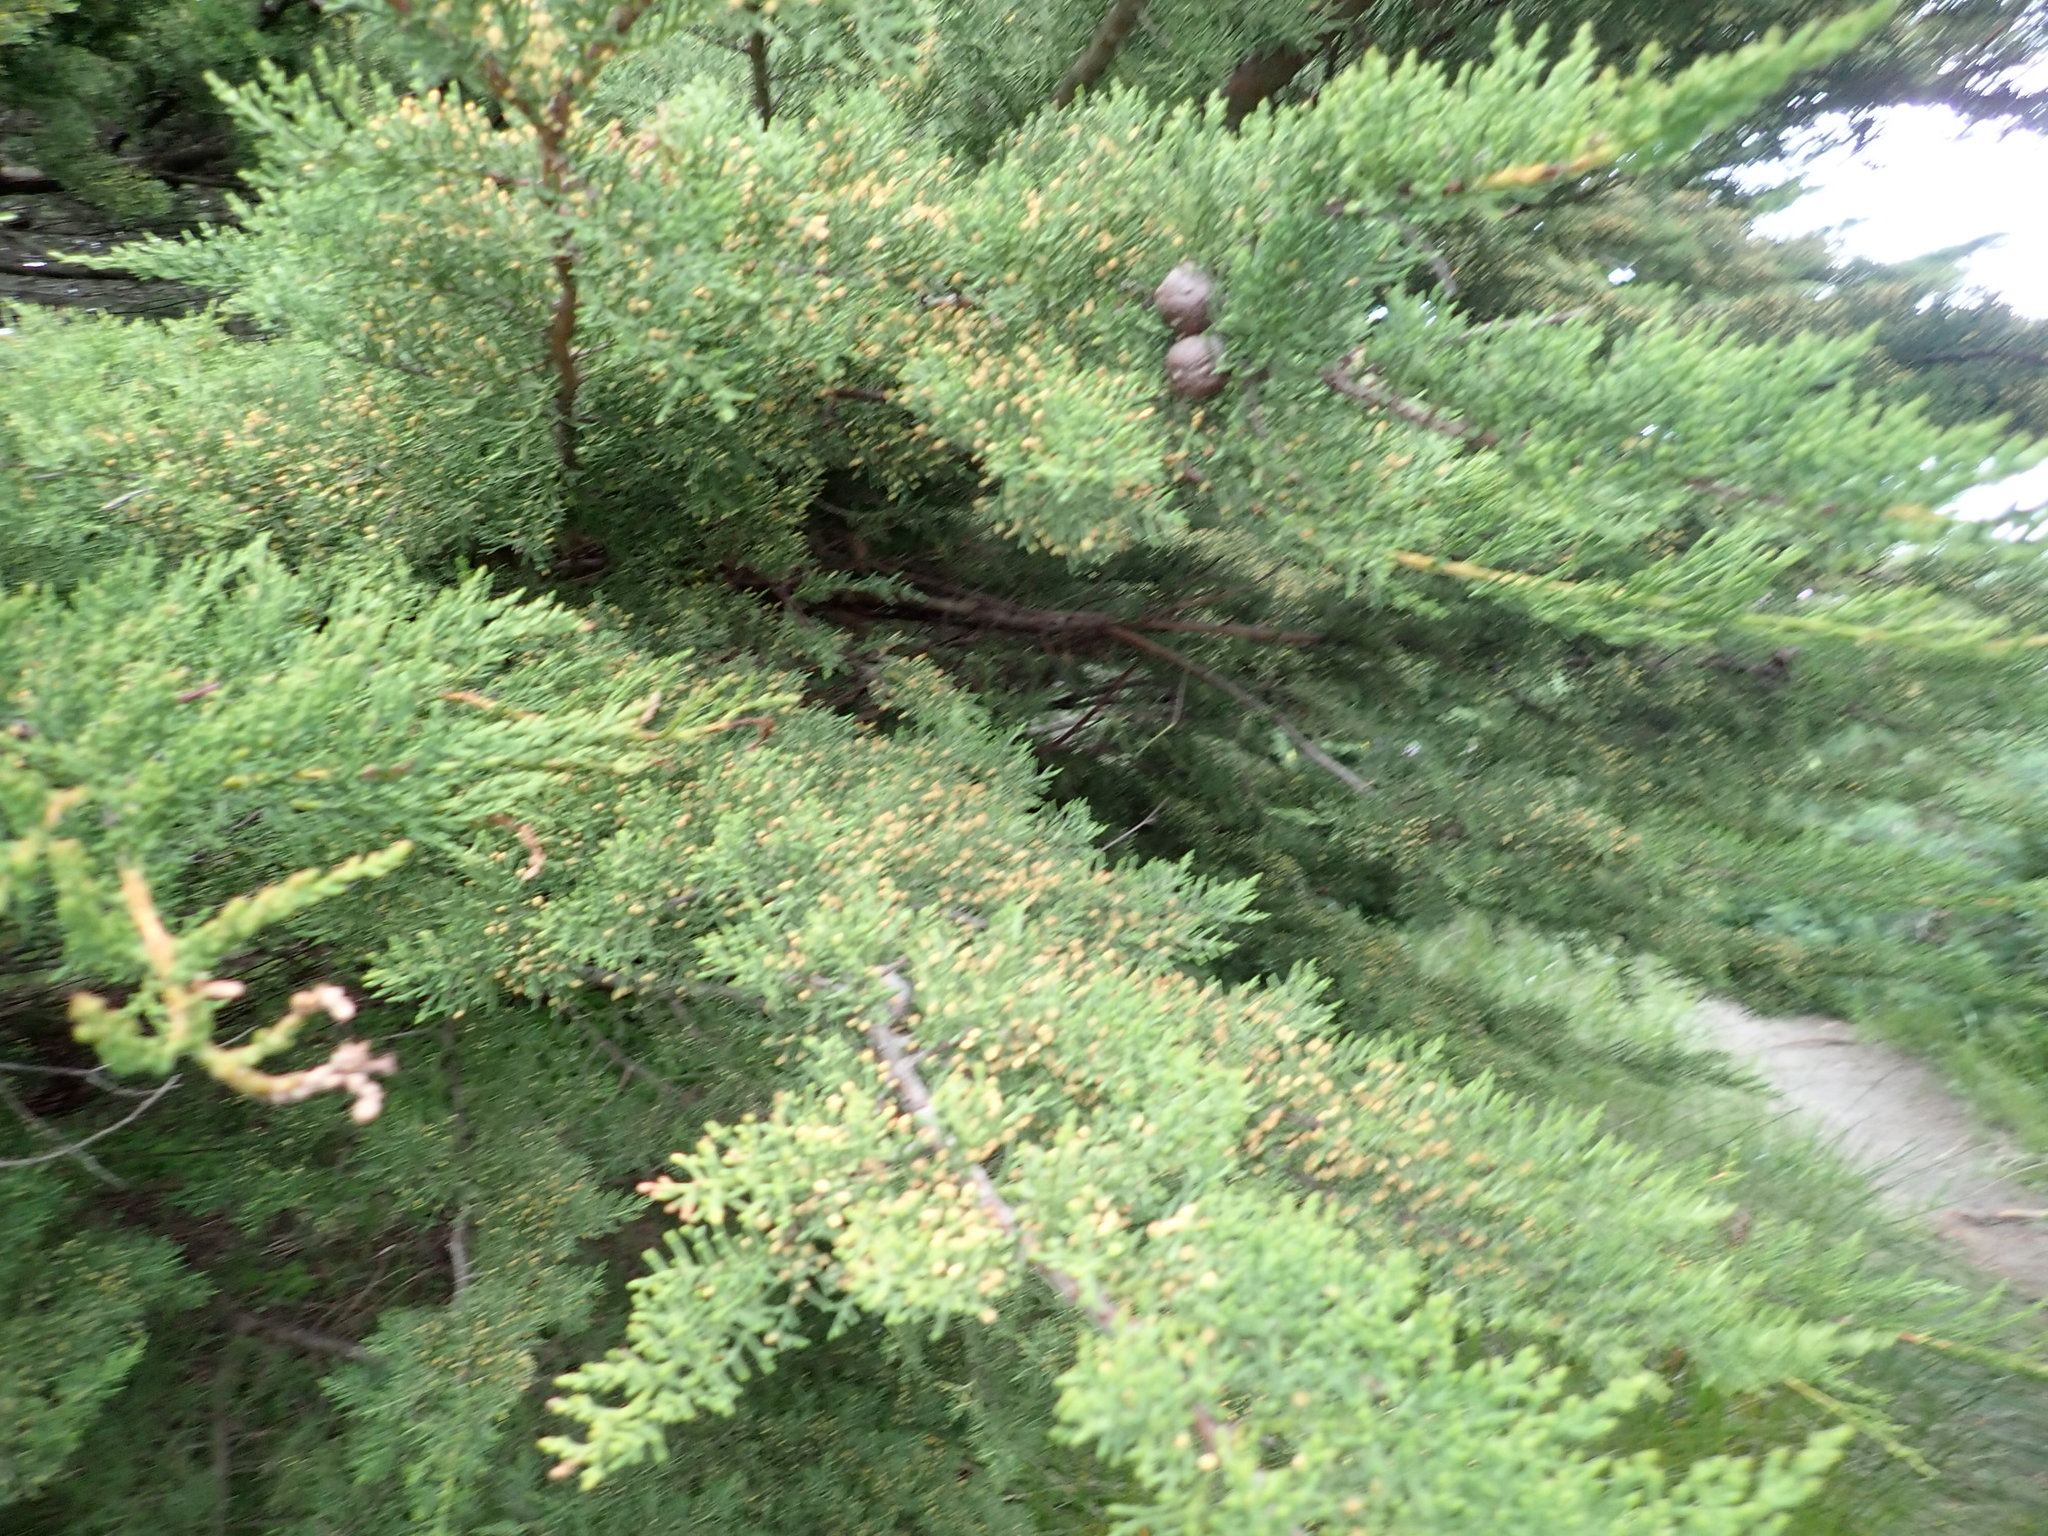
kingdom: Plantae
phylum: Tracheophyta
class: Pinopsida
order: Pinales
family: Cupressaceae
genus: Cupressus
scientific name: Cupressus macrocarpa
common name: Monterey cypress
